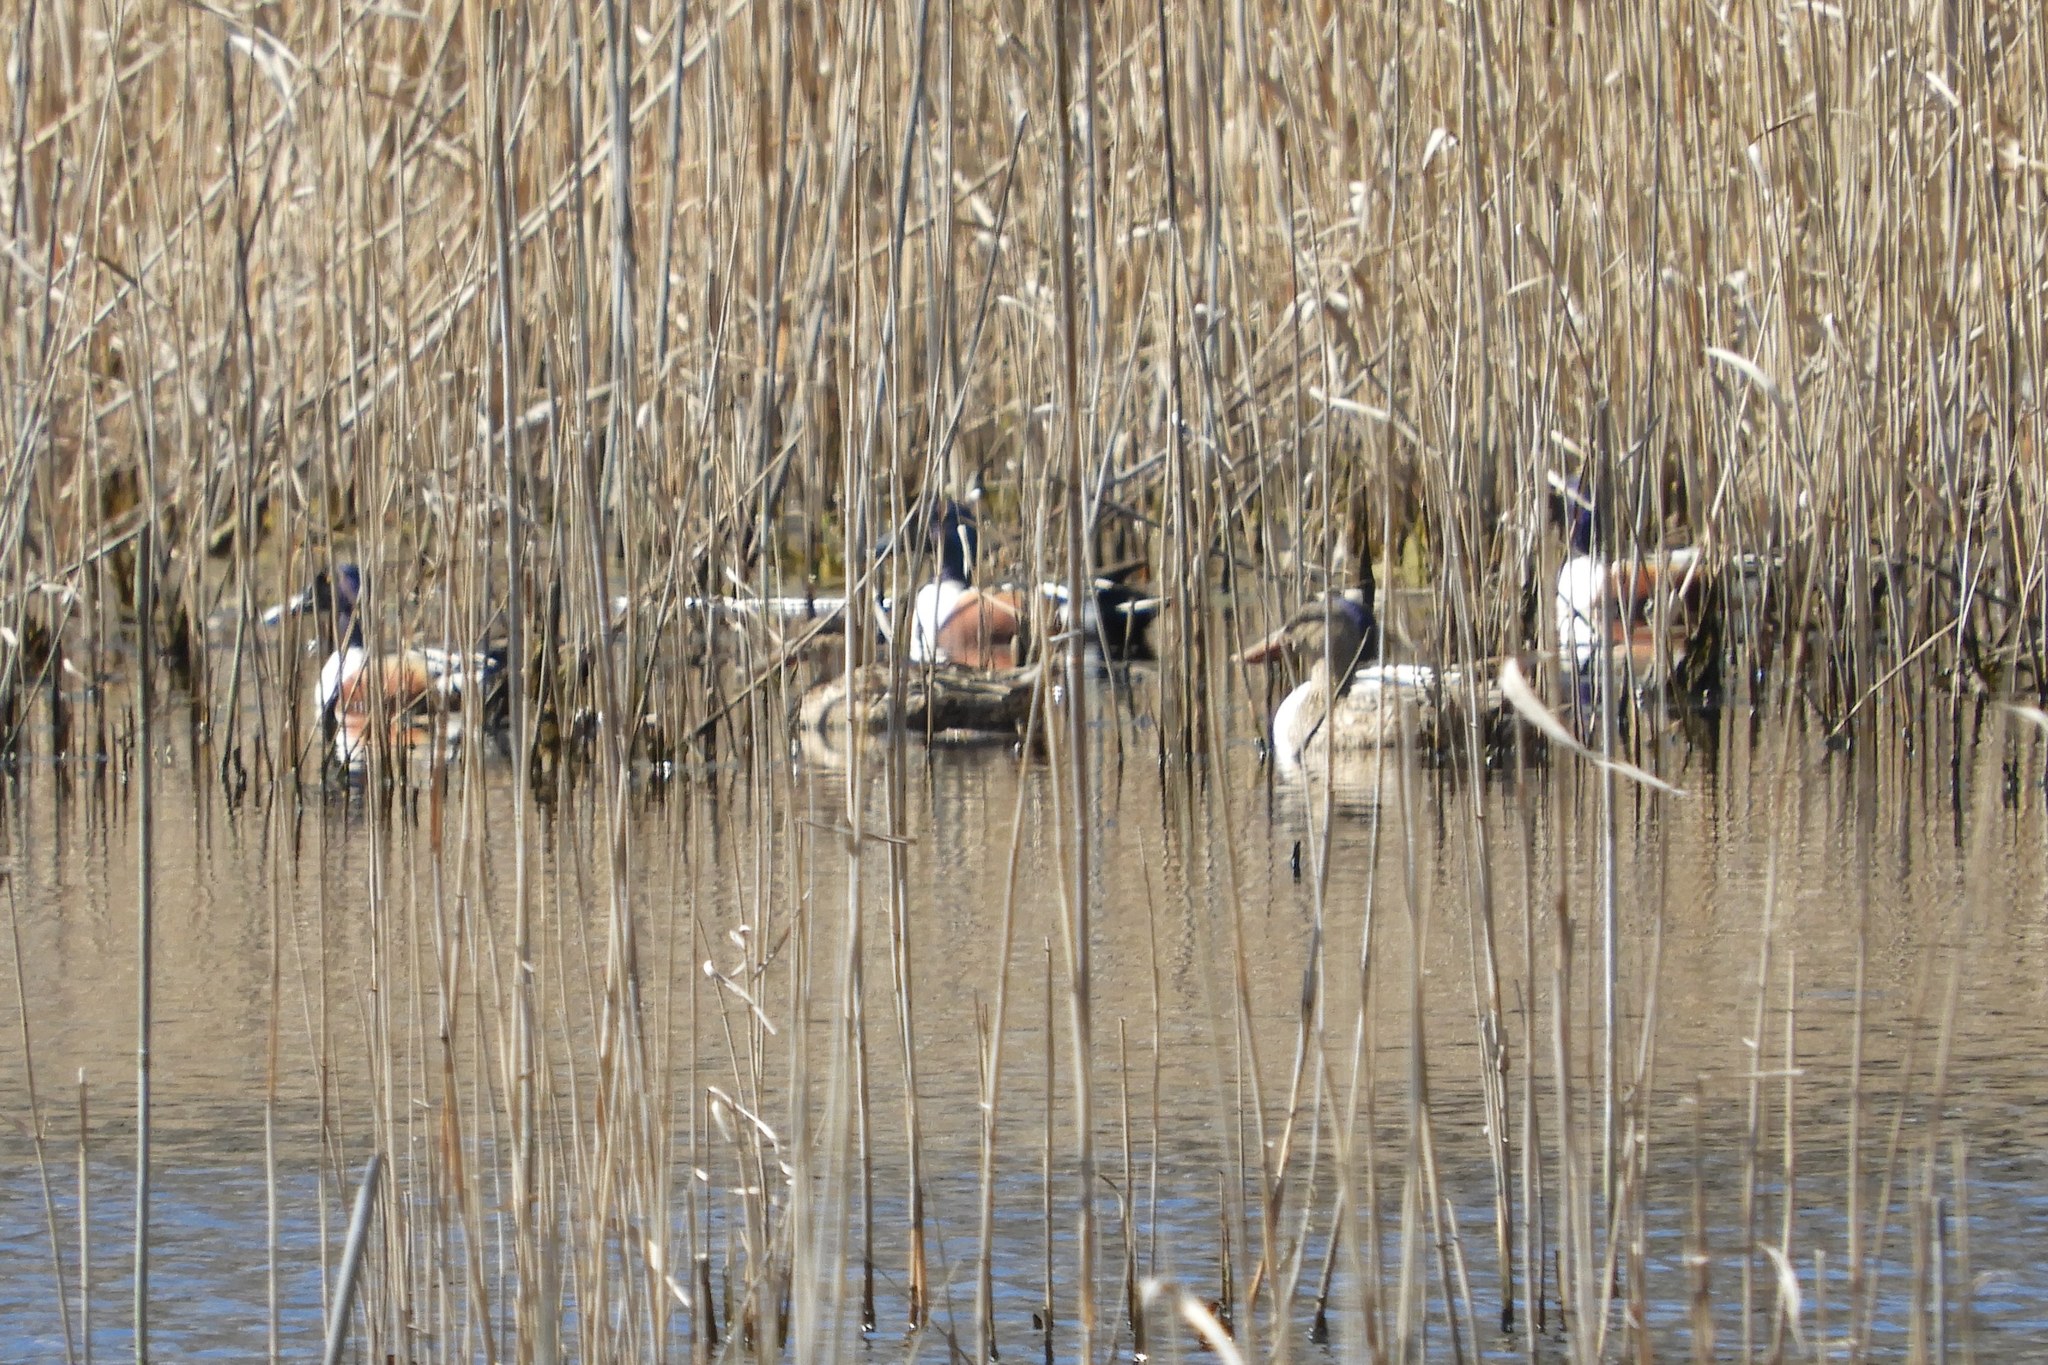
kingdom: Animalia
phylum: Chordata
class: Aves
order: Anseriformes
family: Anatidae
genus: Spatula
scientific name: Spatula clypeata
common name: Northern shoveler
